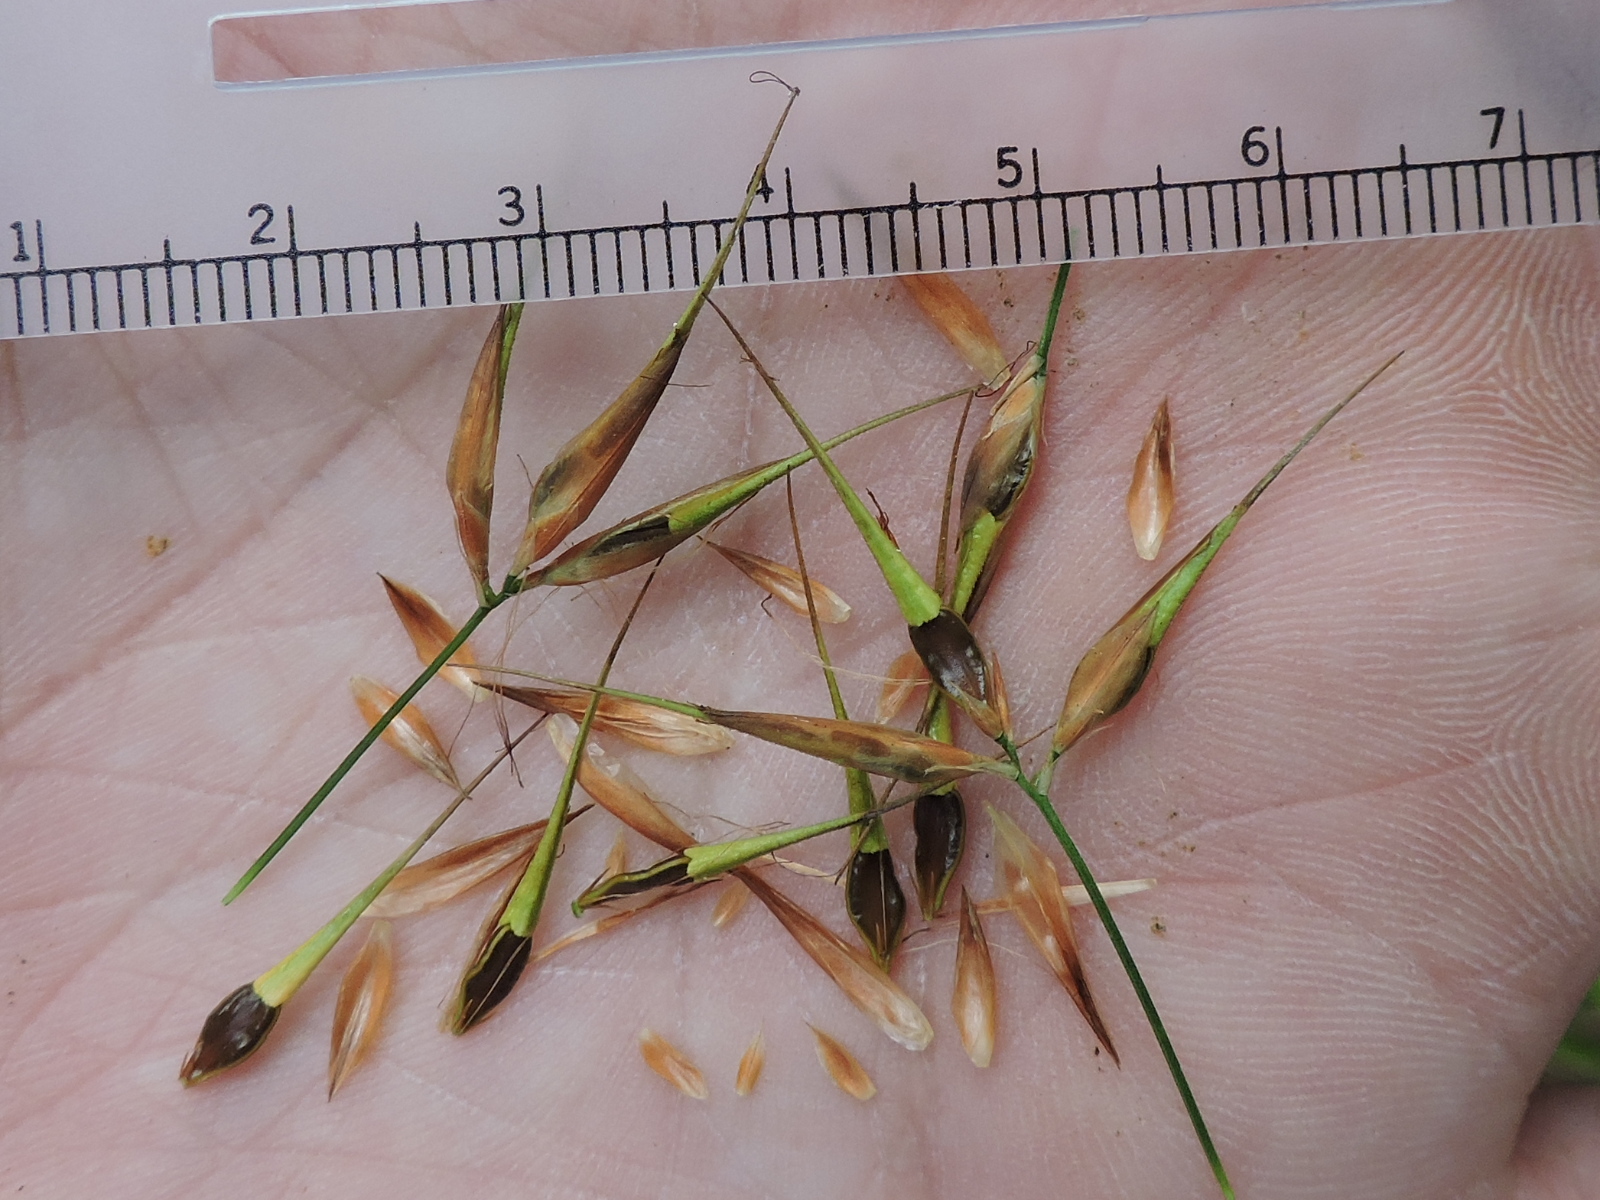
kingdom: Plantae
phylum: Tracheophyta
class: Liliopsida
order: Poales
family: Cyperaceae
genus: Rhynchospora
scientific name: Rhynchospora corniculata
